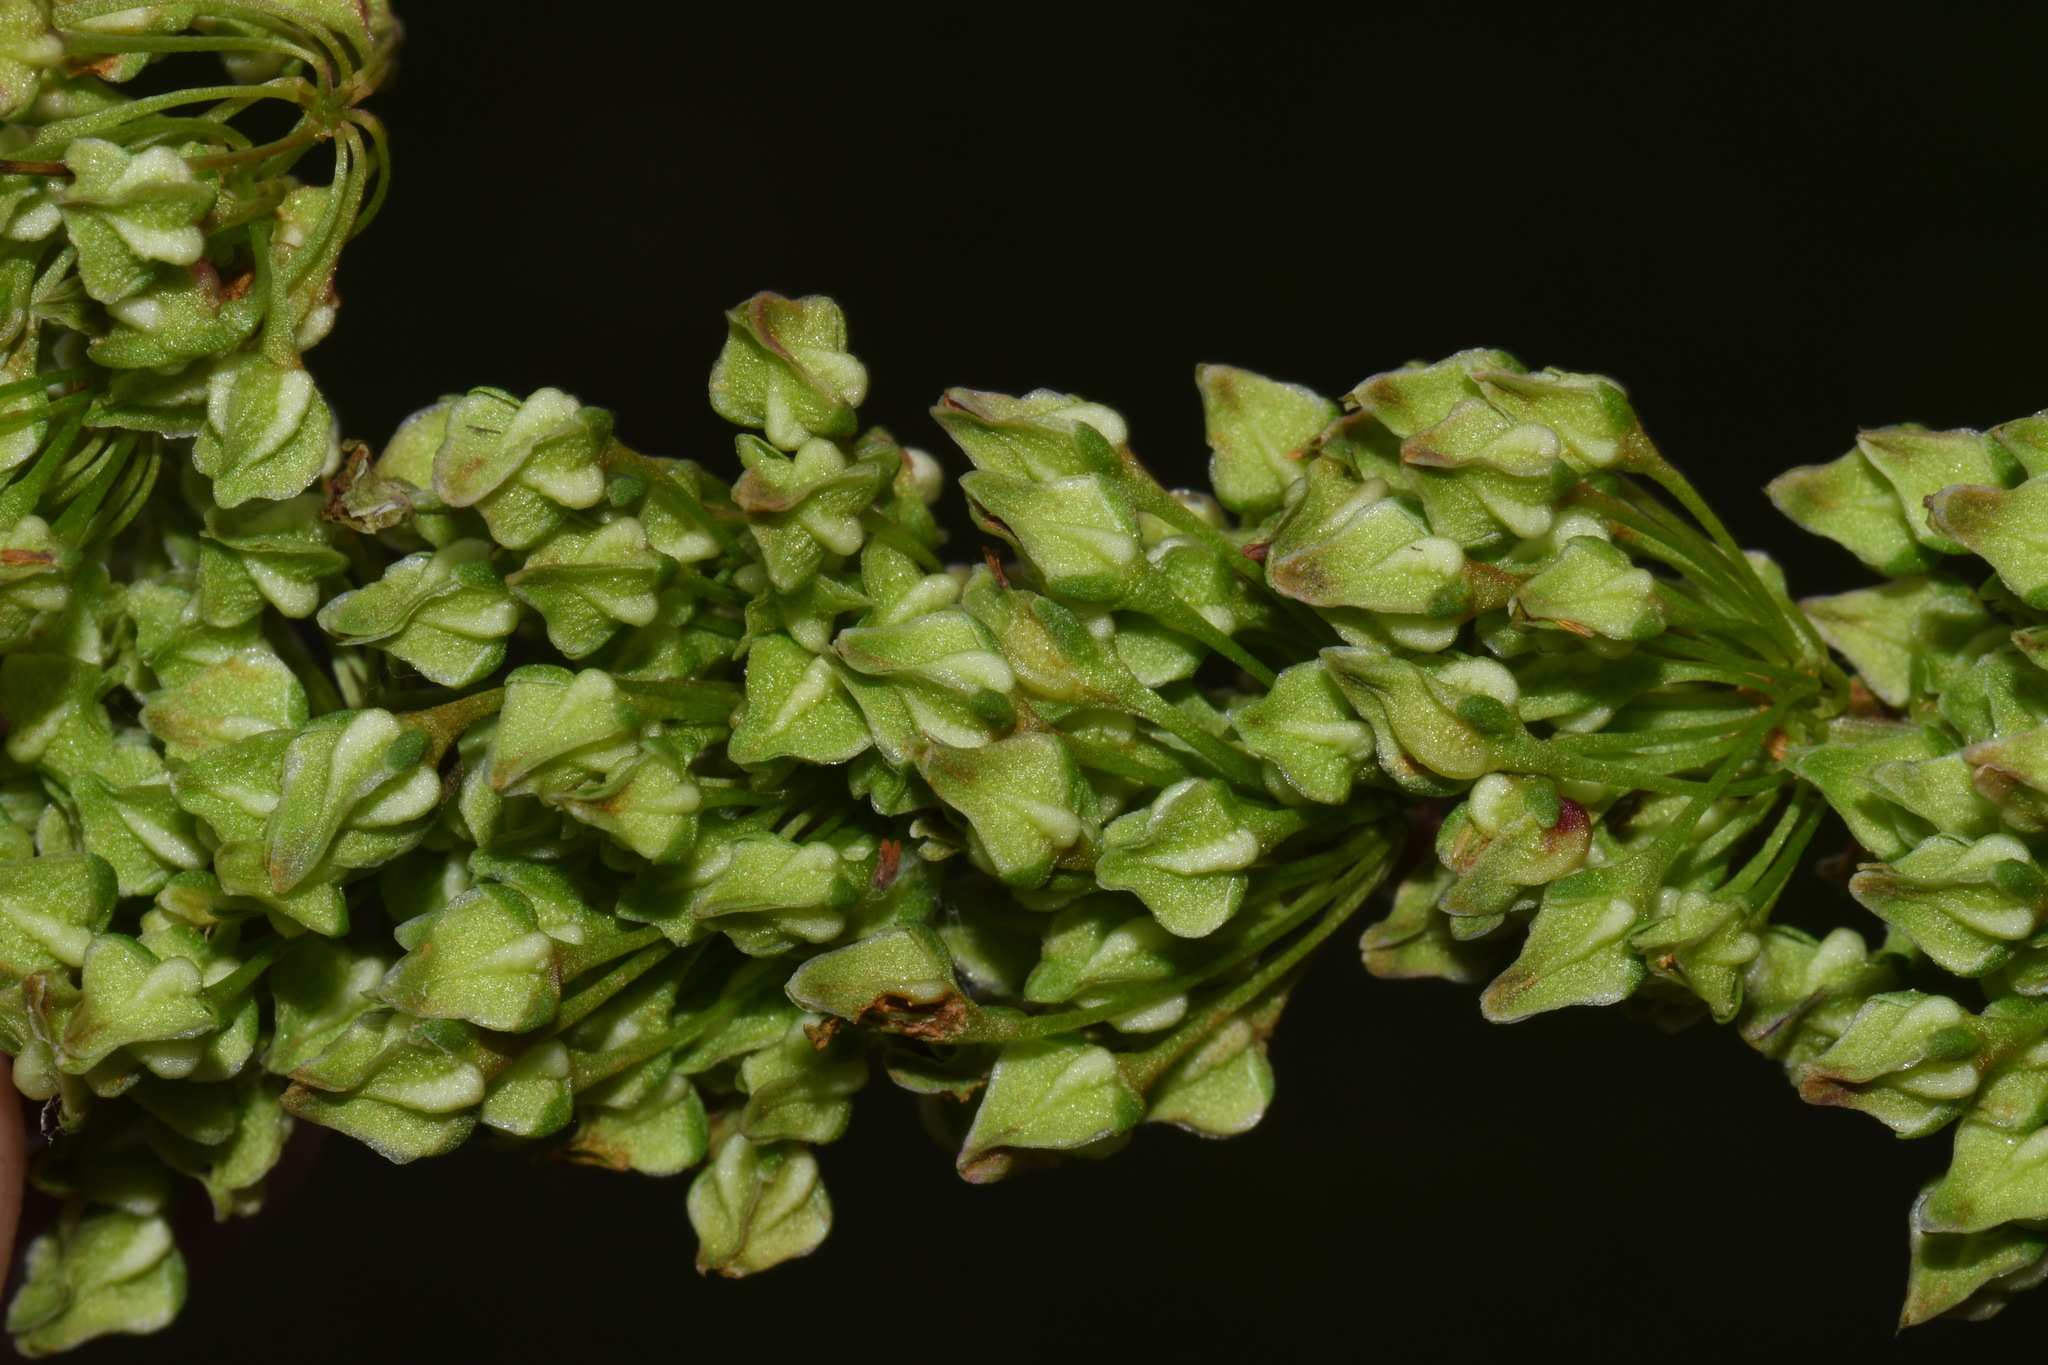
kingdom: Plantae
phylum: Tracheophyta
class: Magnoliopsida
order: Caryophyllales
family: Polygonaceae
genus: Rumex
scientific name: Rumex verticillatus
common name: Swamp dock
